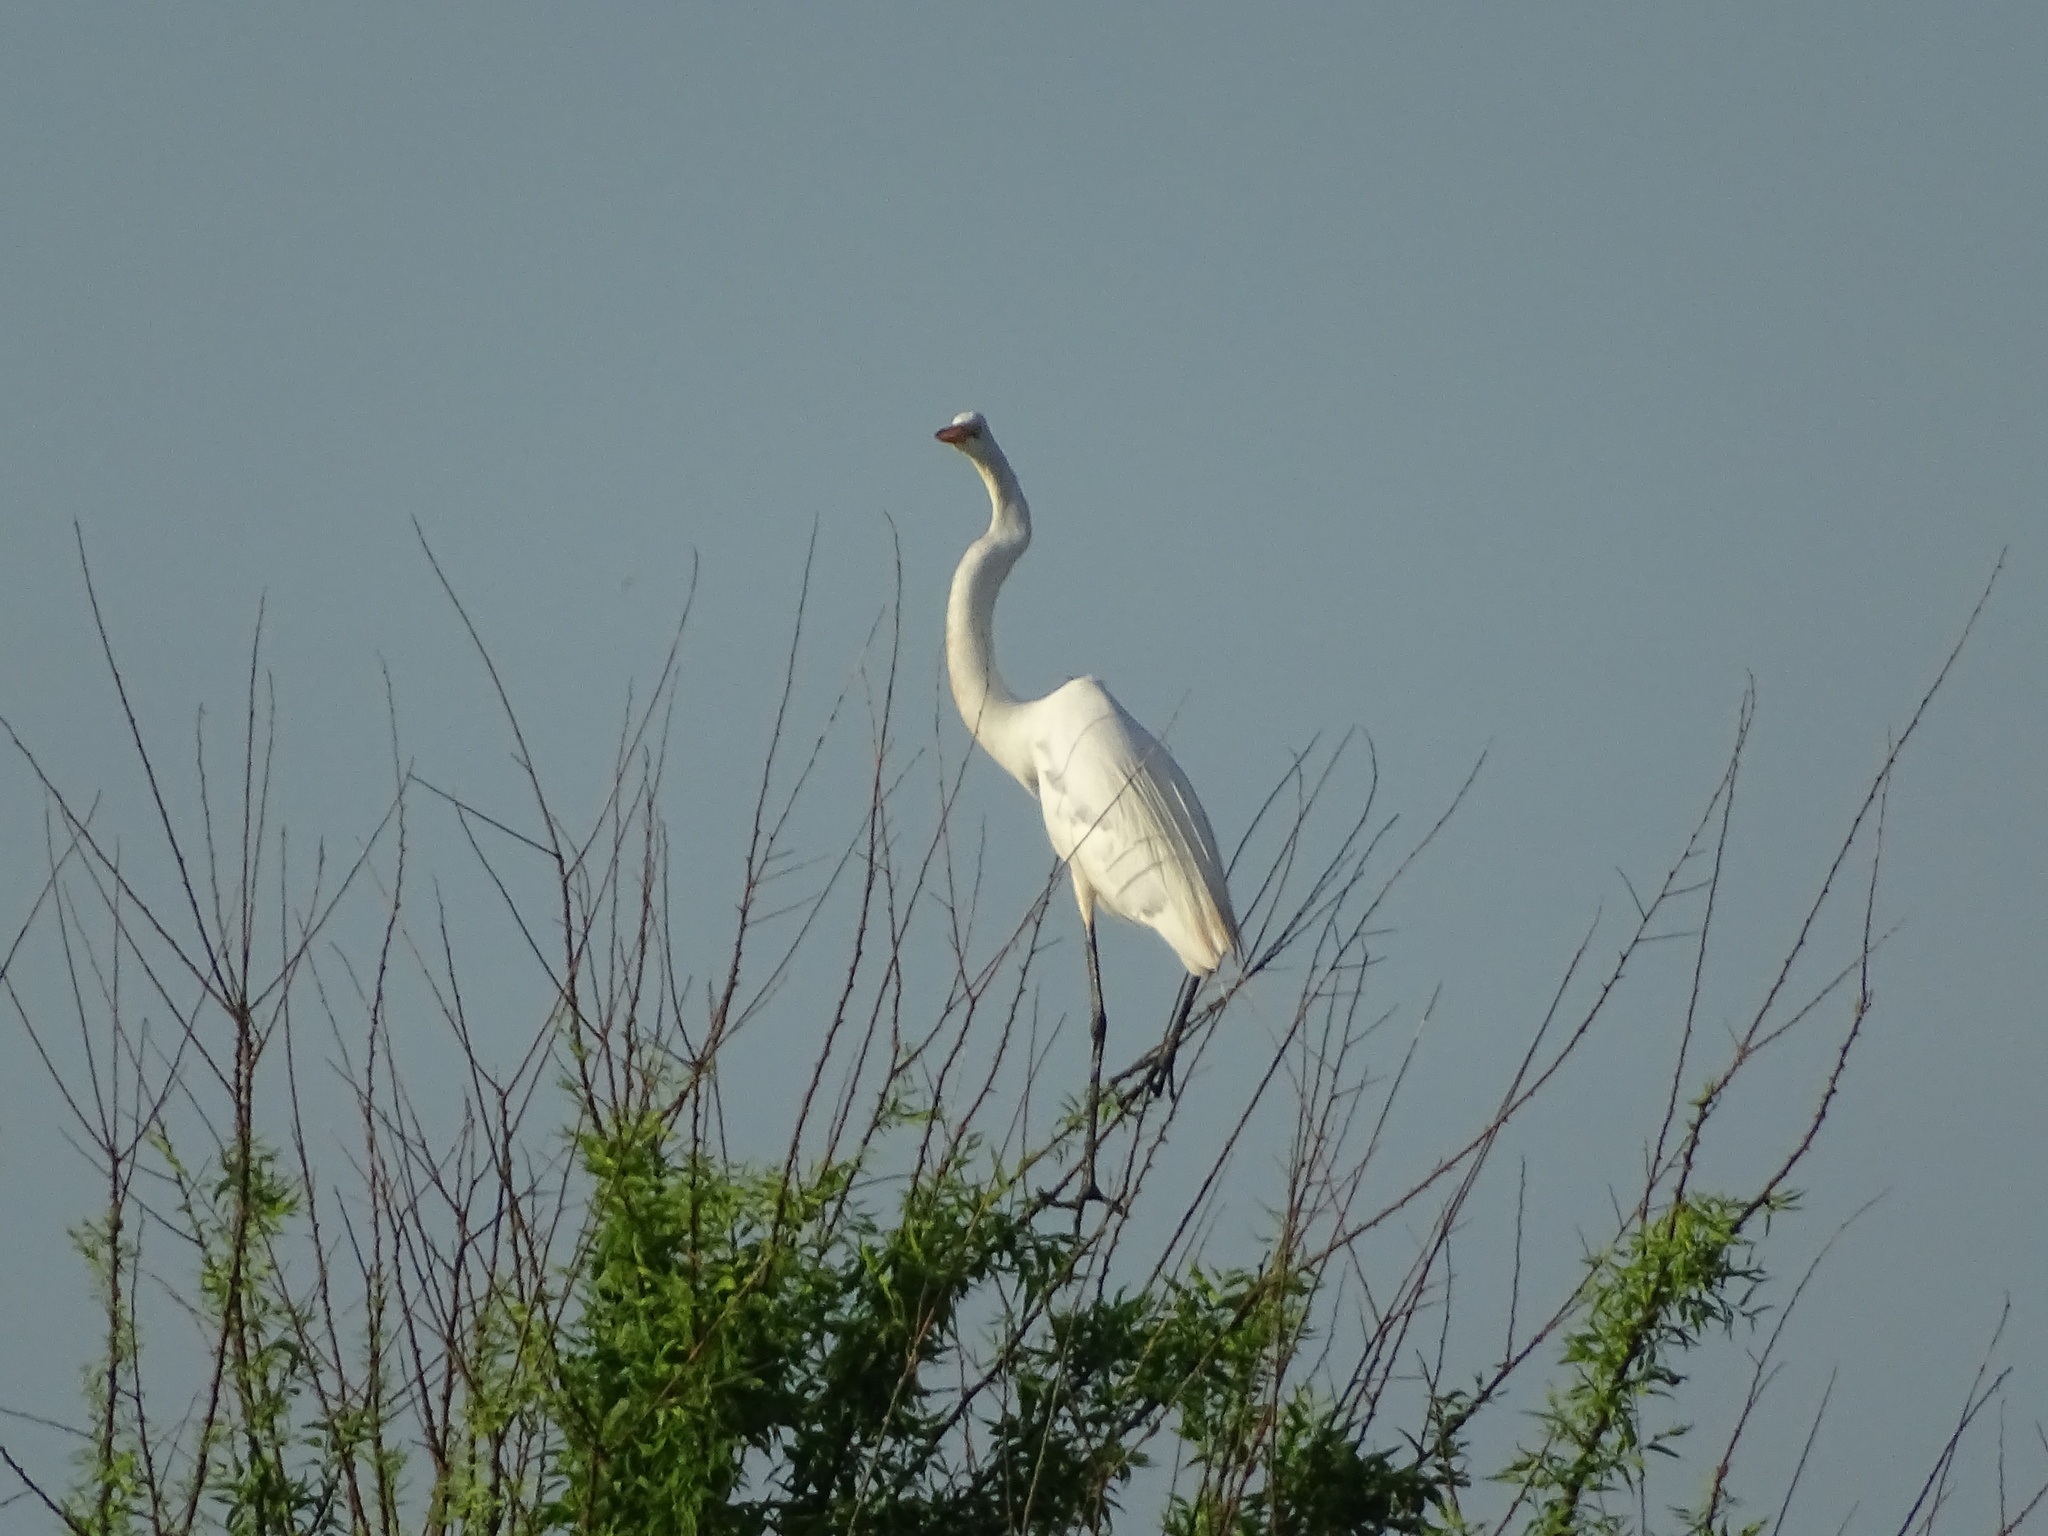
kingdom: Animalia
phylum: Chordata
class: Aves
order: Pelecaniformes
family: Ardeidae
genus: Ardea
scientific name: Ardea alba
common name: Great egret
